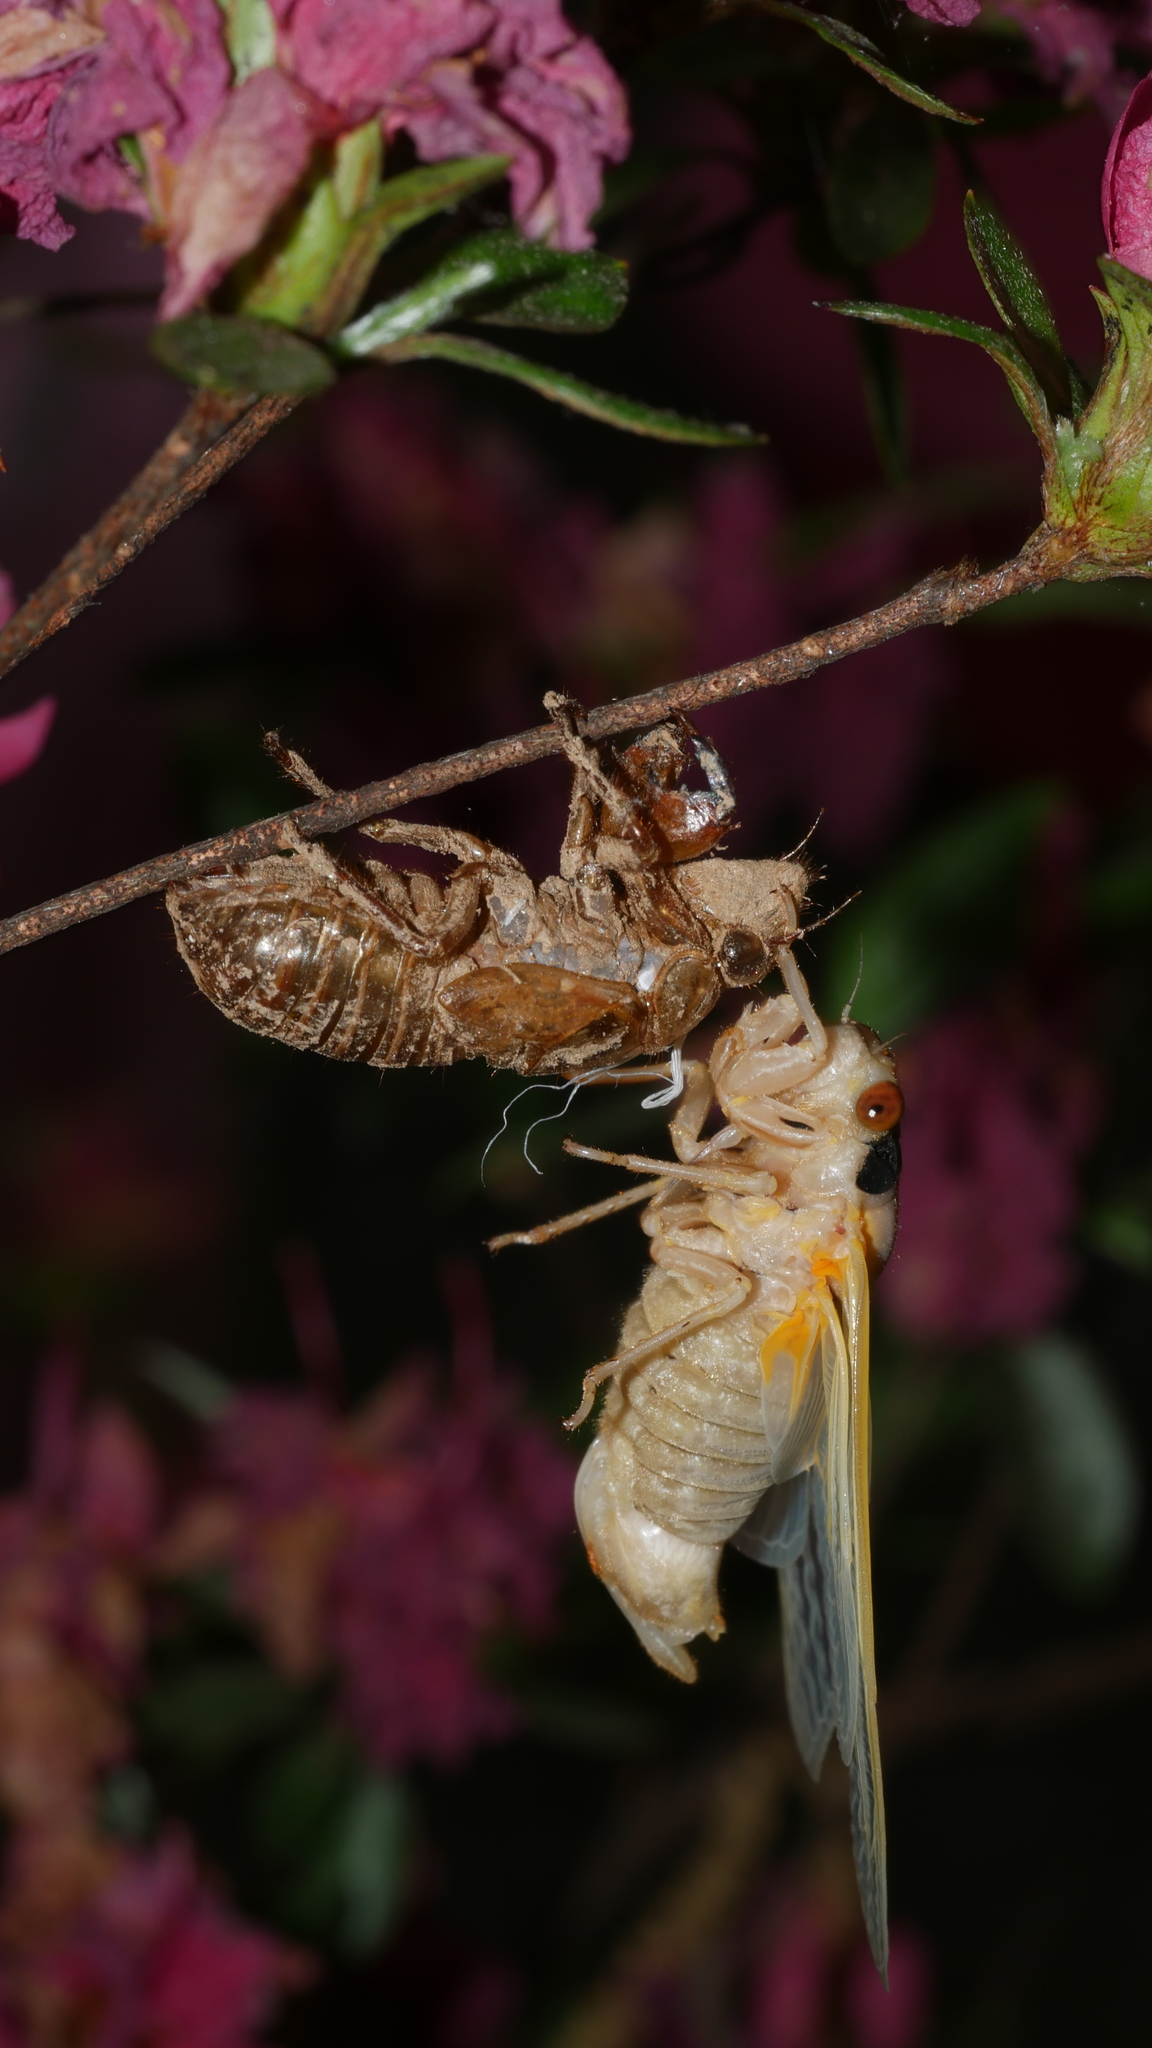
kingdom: Animalia
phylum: Arthropoda
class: Insecta
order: Hemiptera
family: Cicadidae
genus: Magicicada
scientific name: Magicicada
